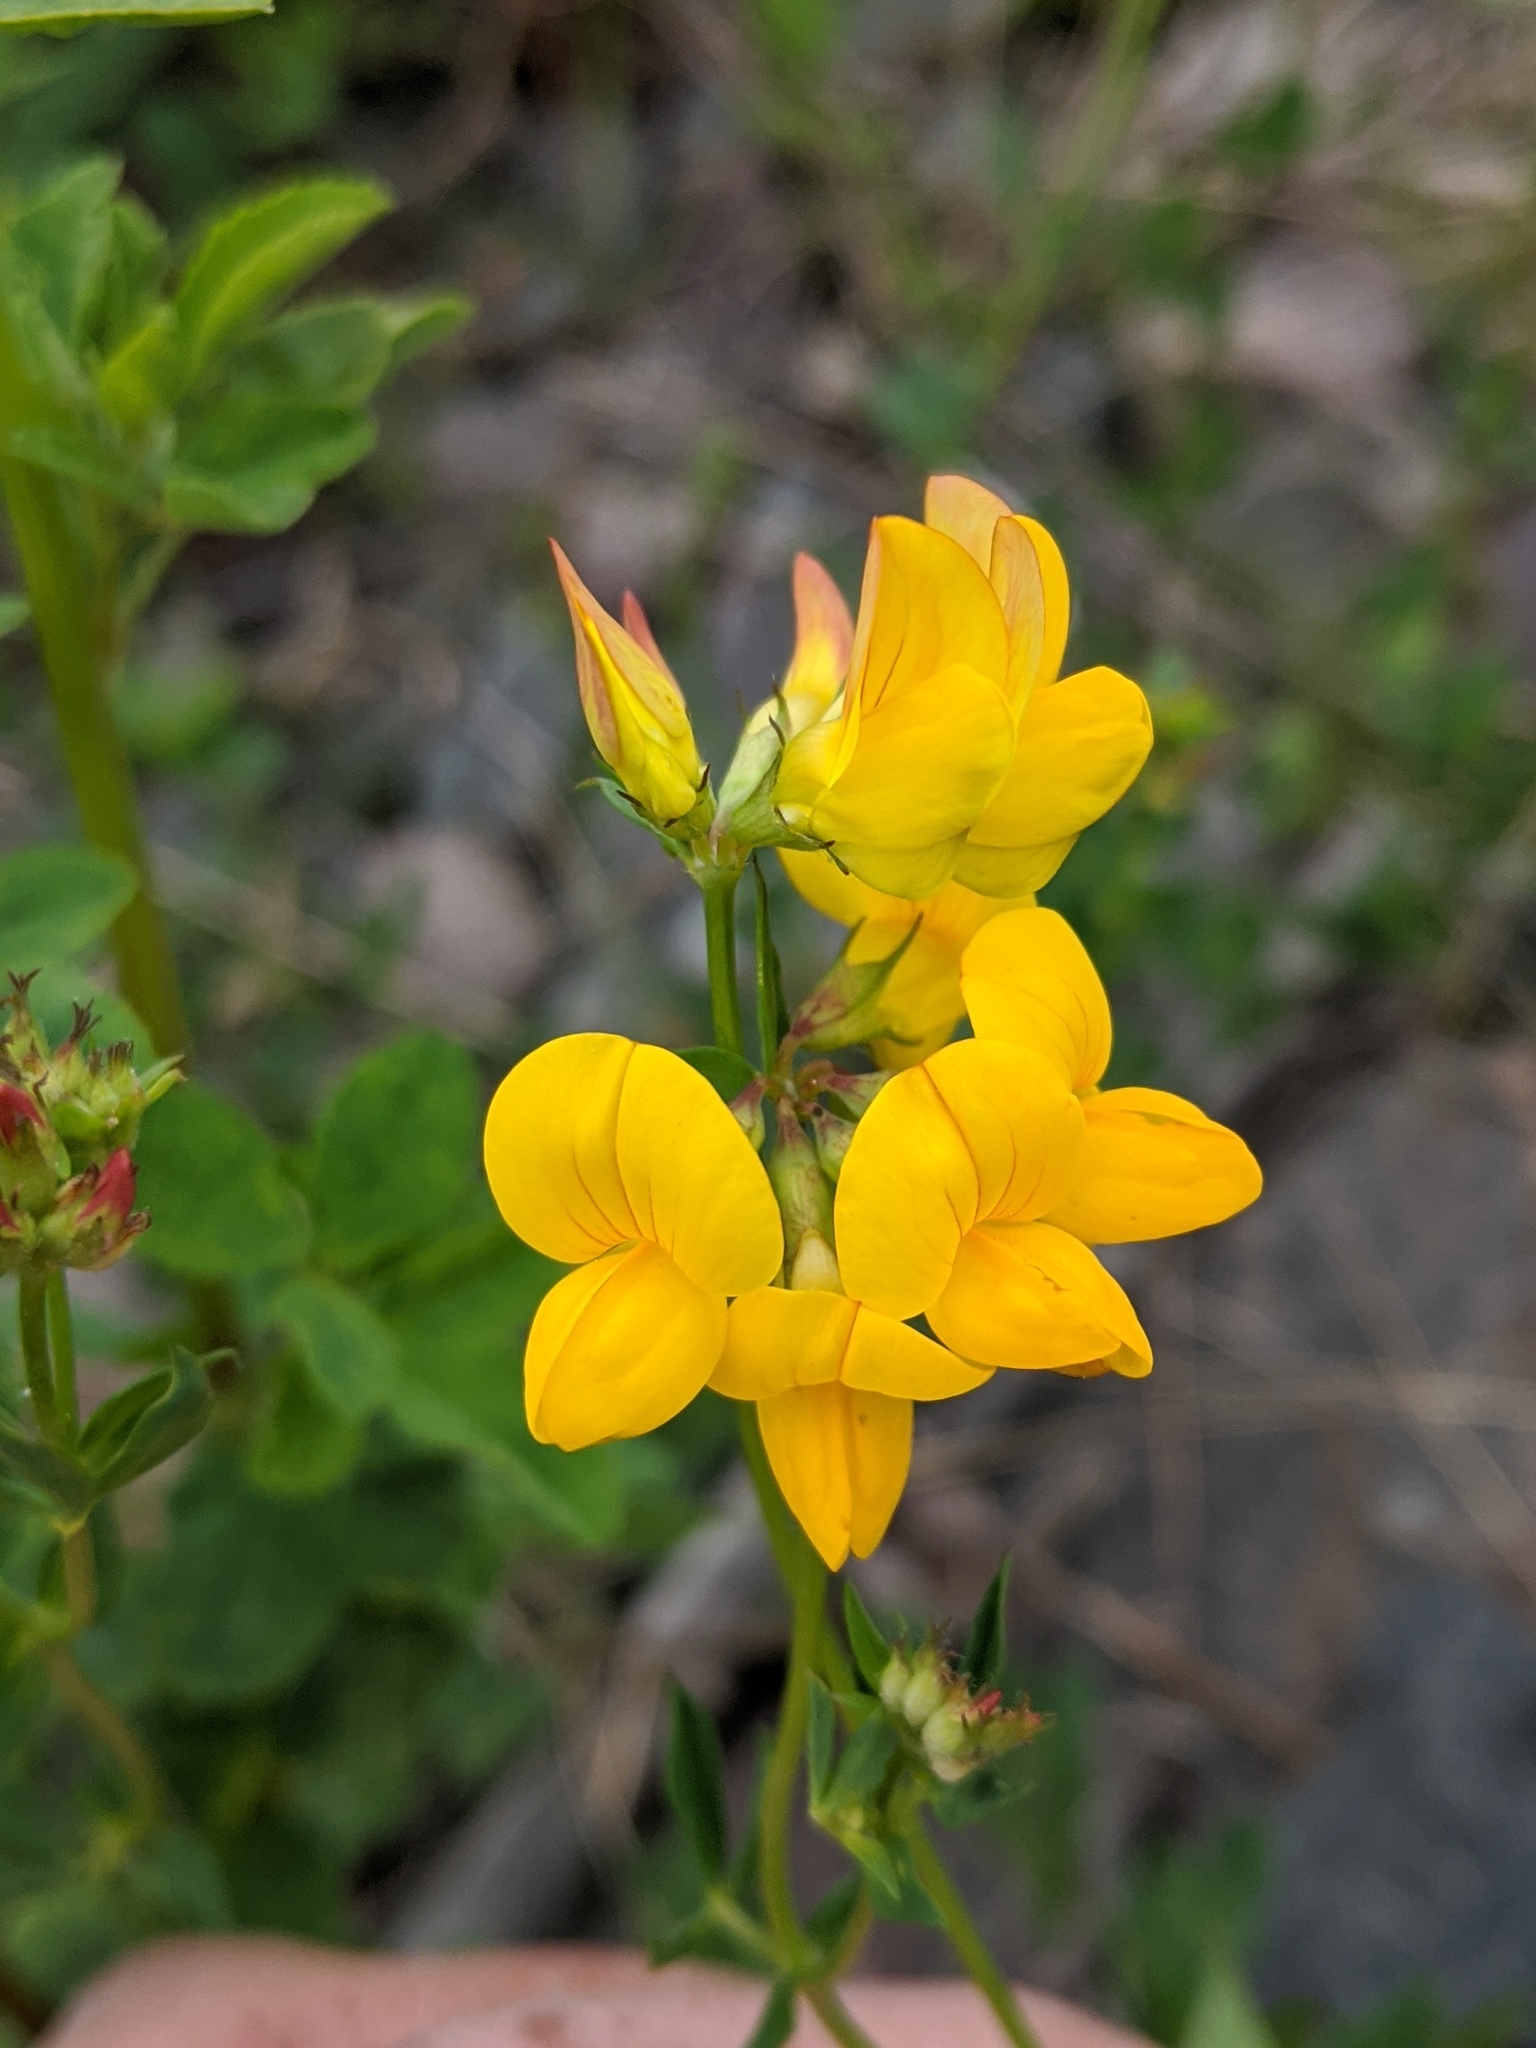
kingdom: Plantae
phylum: Tracheophyta
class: Magnoliopsida
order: Fabales
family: Fabaceae
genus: Lotus
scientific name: Lotus corniculatus
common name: Common bird's-foot-trefoil
